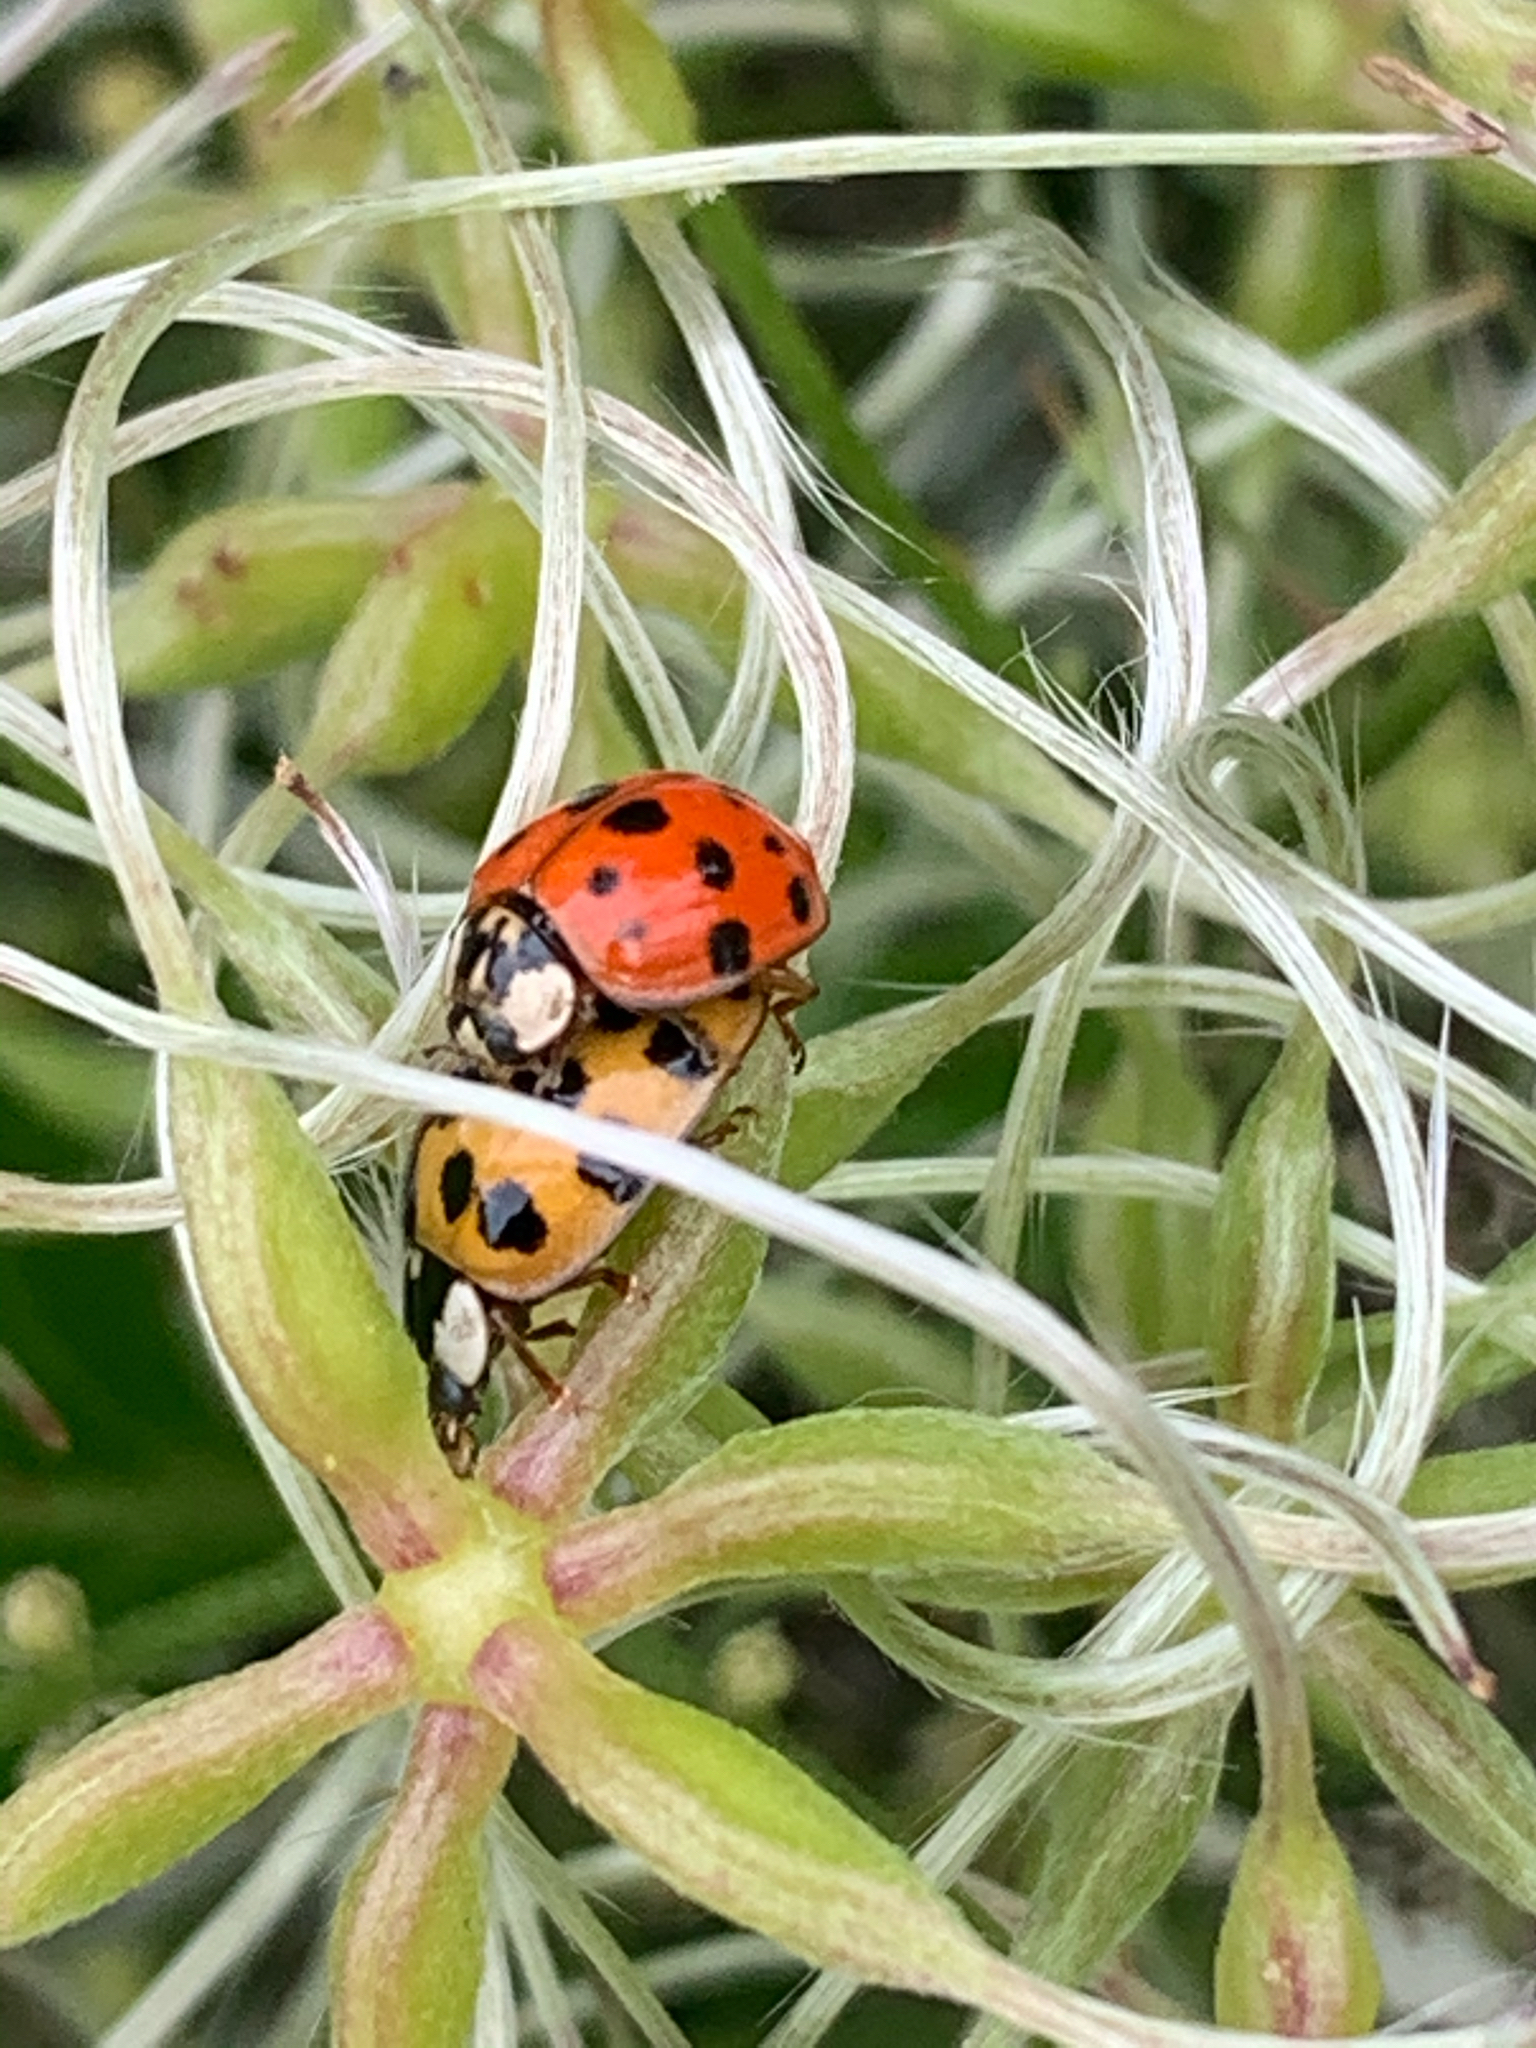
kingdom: Animalia
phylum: Arthropoda
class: Insecta
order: Coleoptera
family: Coccinellidae
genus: Harmonia
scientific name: Harmonia axyridis
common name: Harlequin ladybird
